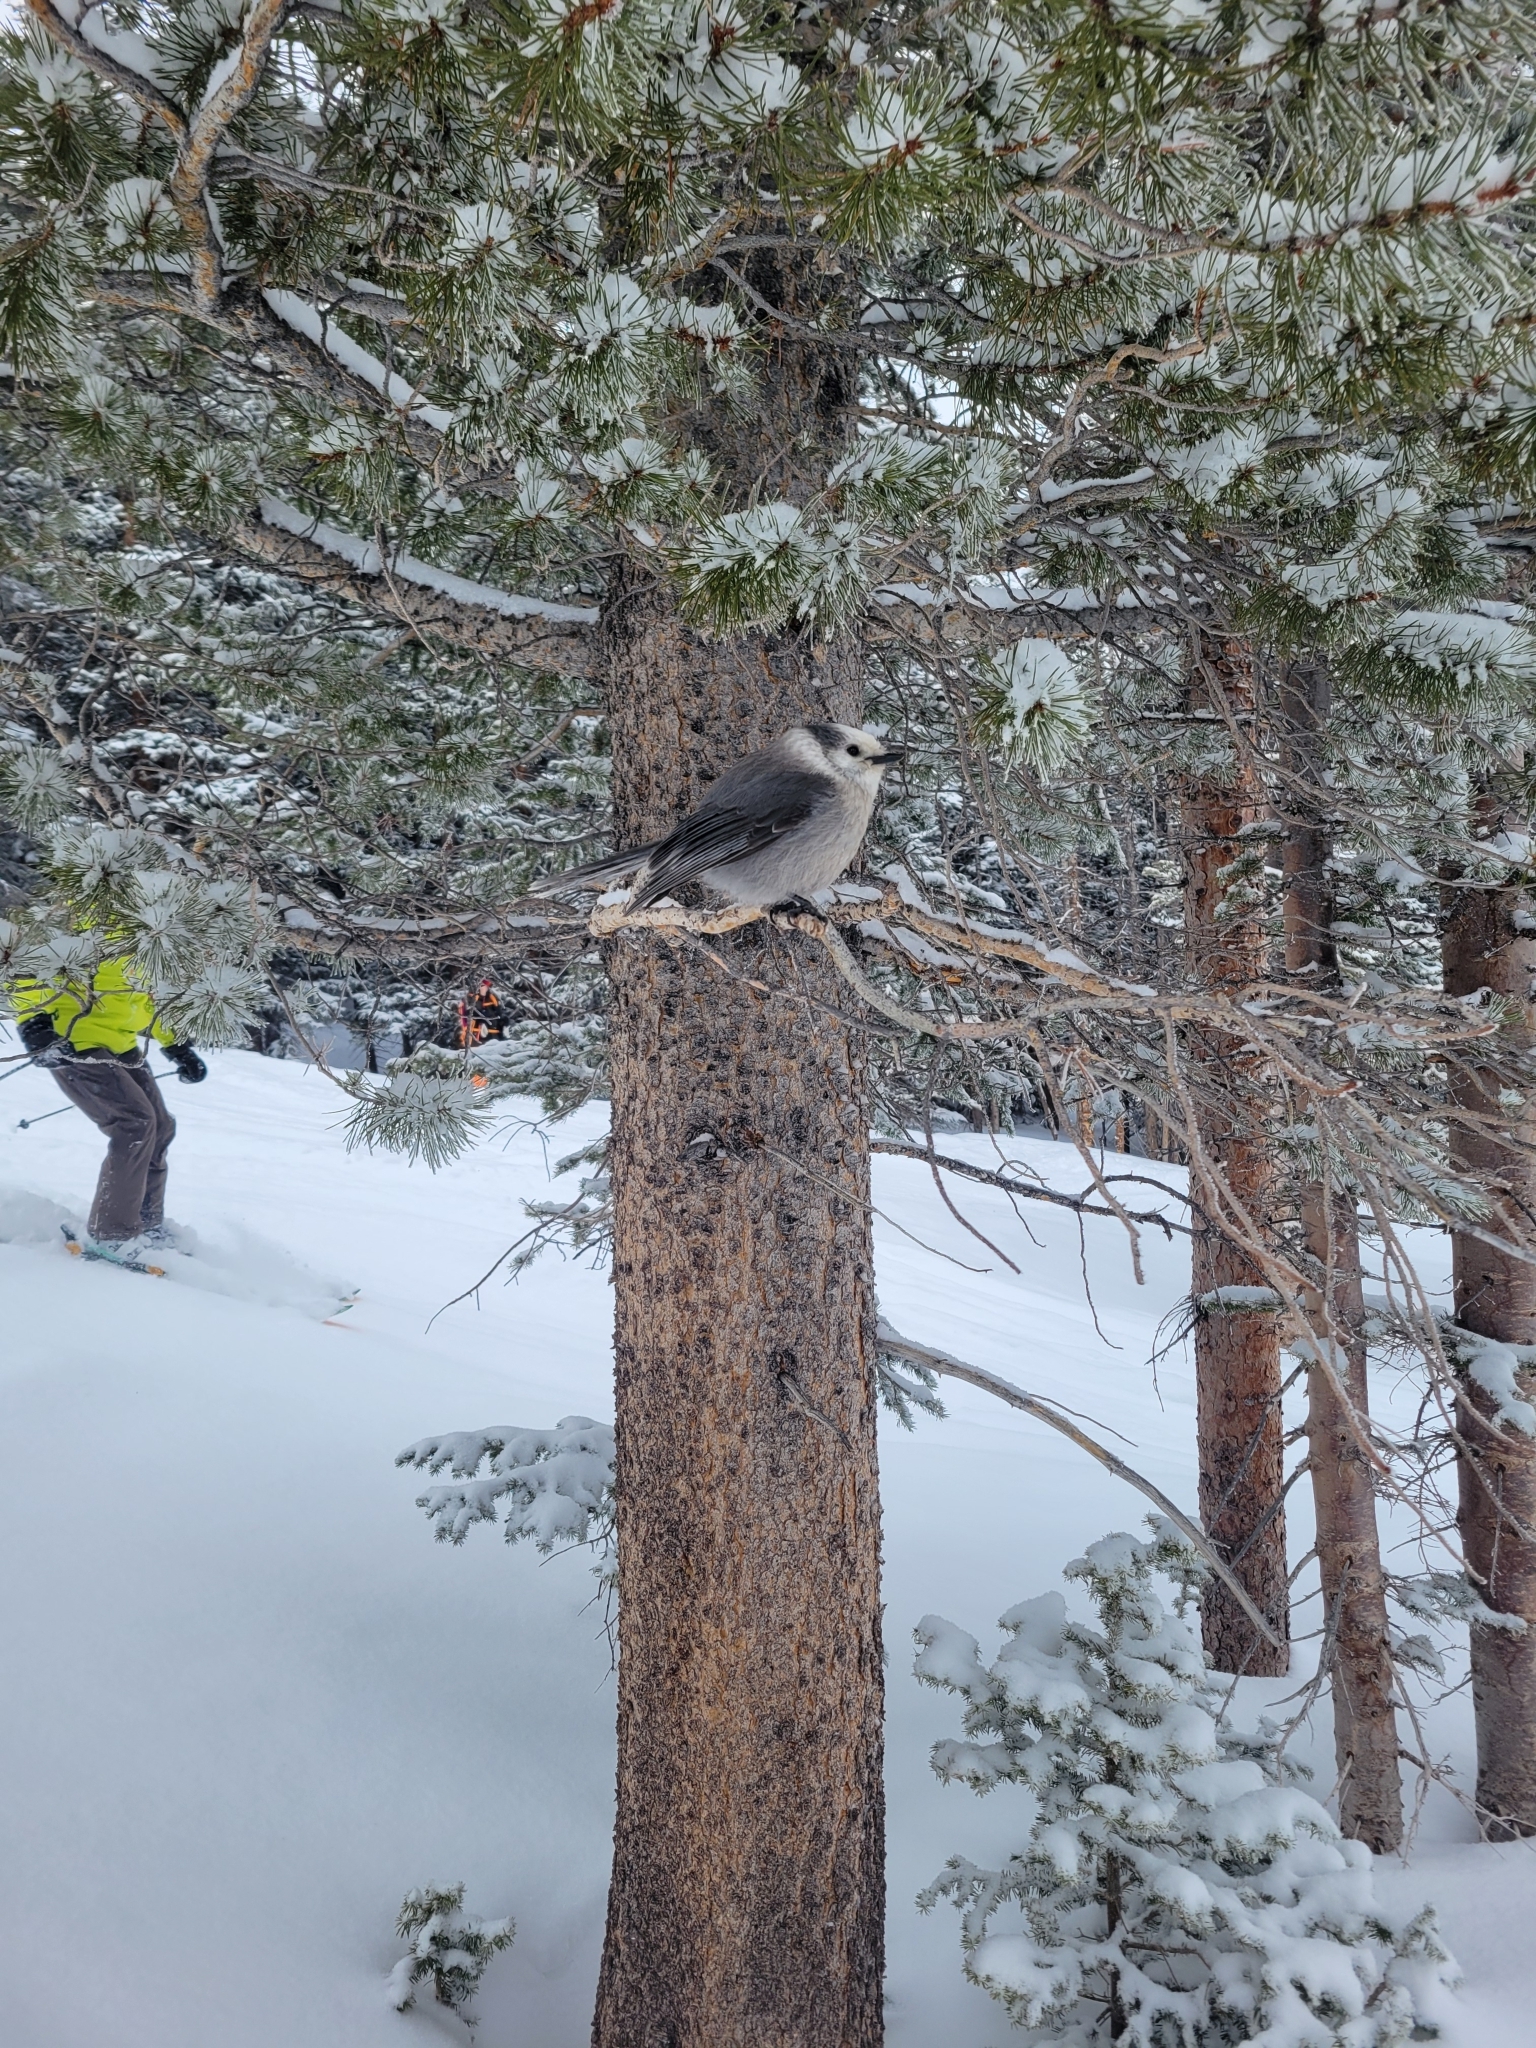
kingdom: Animalia
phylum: Chordata
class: Aves
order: Passeriformes
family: Corvidae
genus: Perisoreus
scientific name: Perisoreus canadensis
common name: Gray jay
